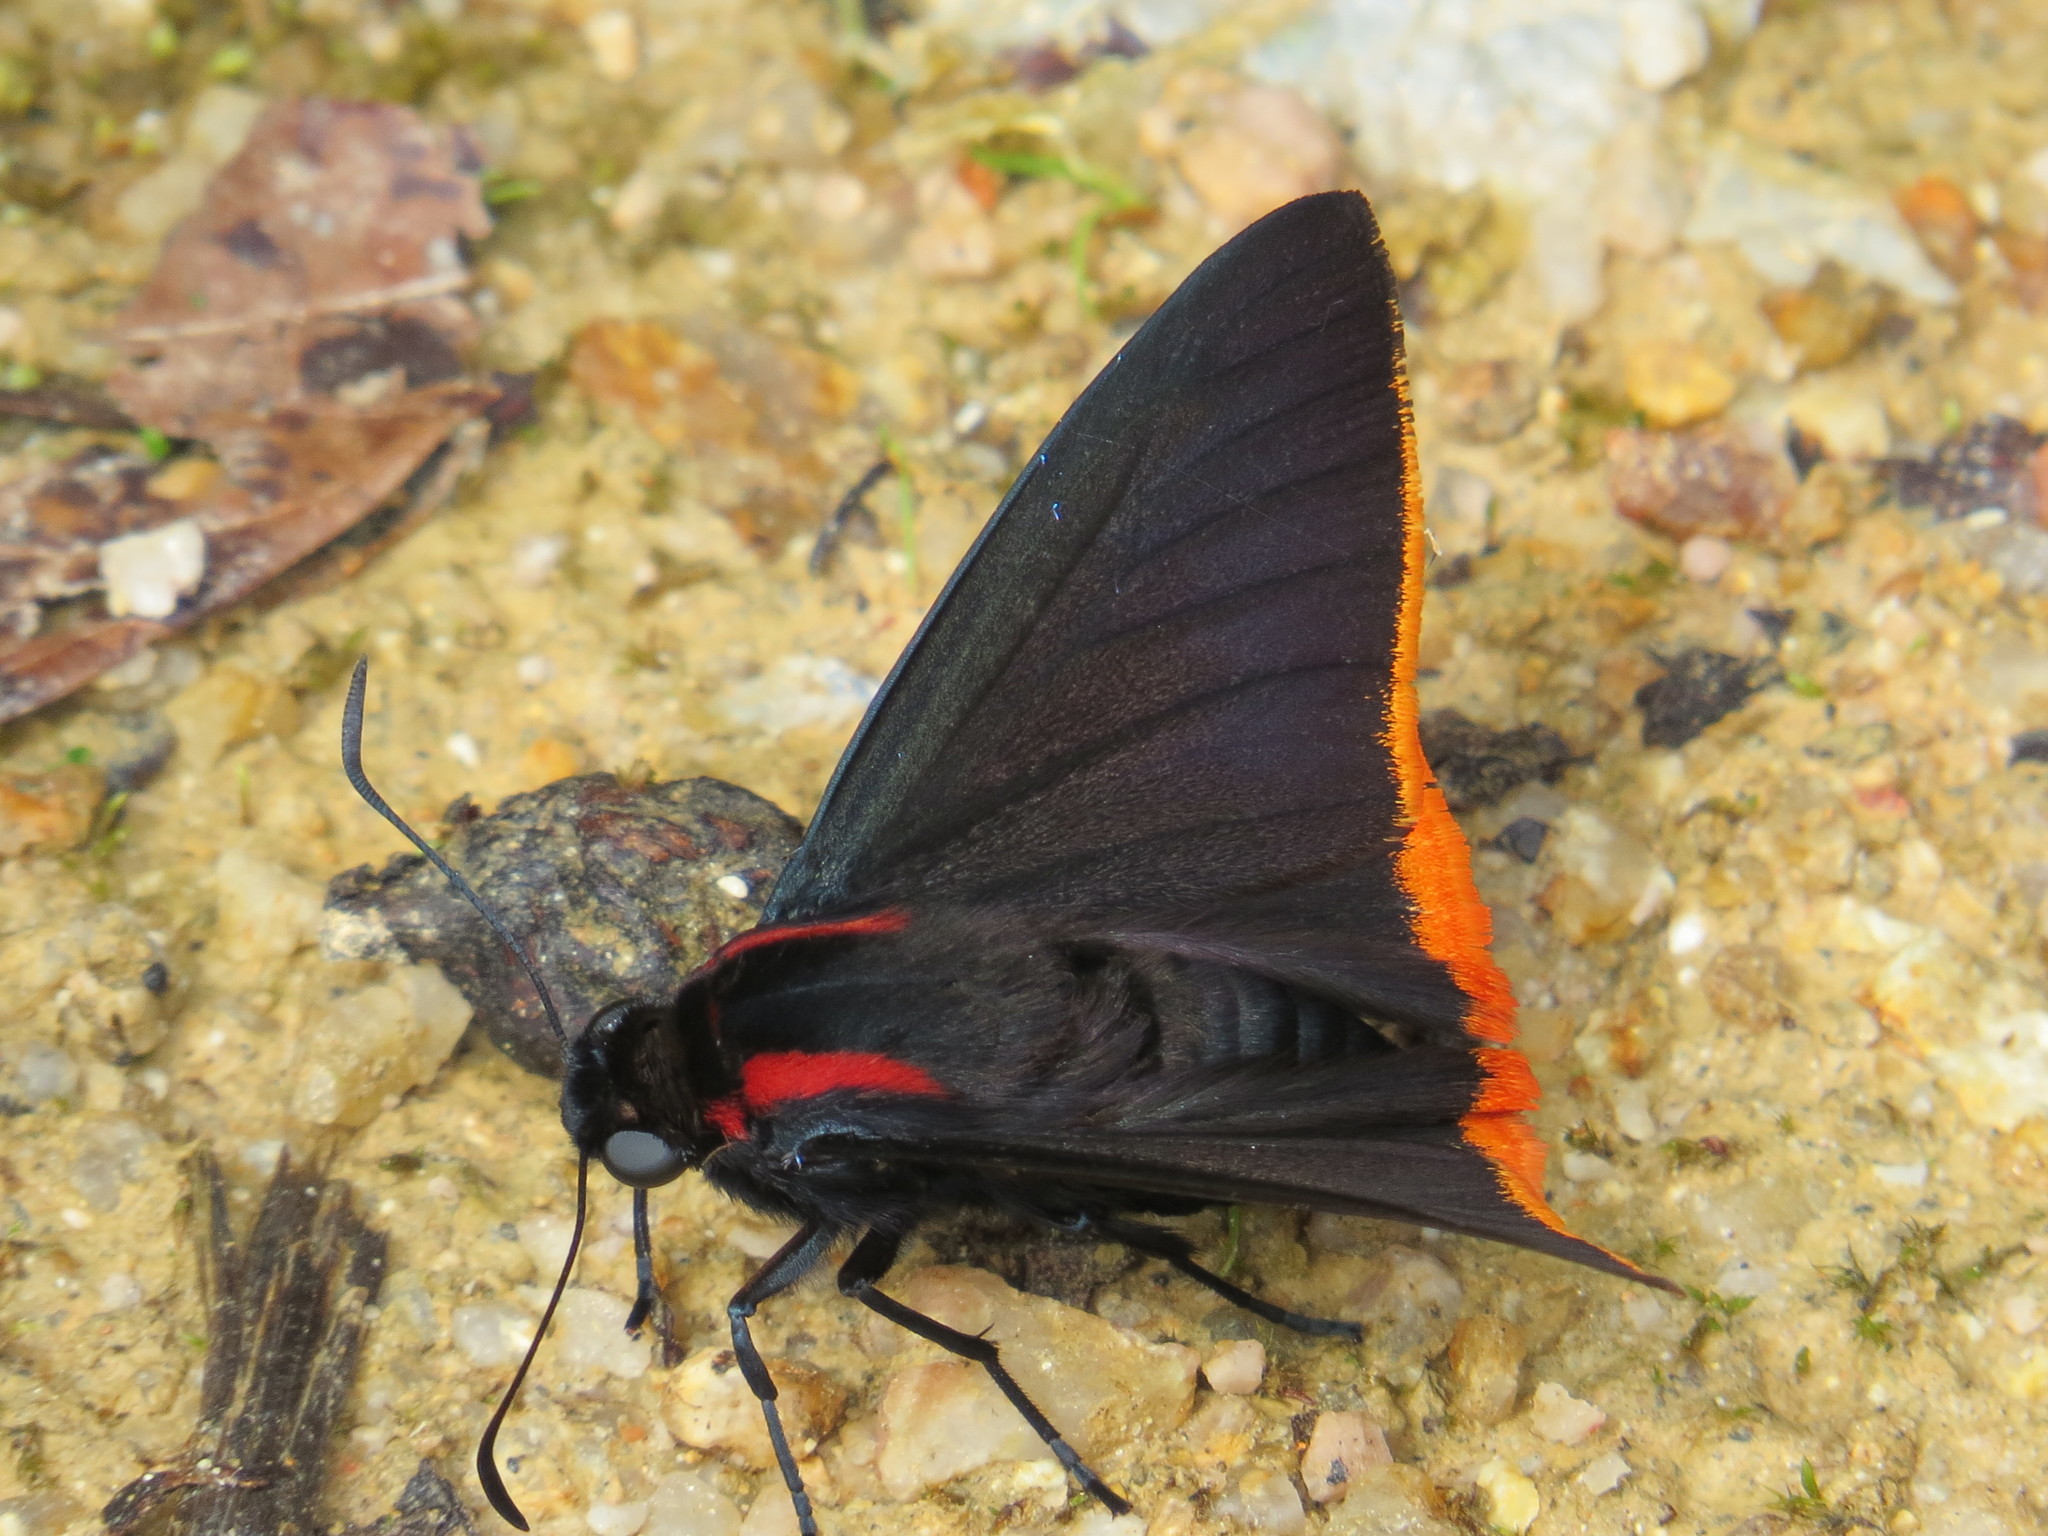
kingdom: Animalia
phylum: Arthropoda
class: Insecta
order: Lepidoptera
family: Hesperiidae
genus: Pyrrhopyge
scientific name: Pyrrhopyge telassa
